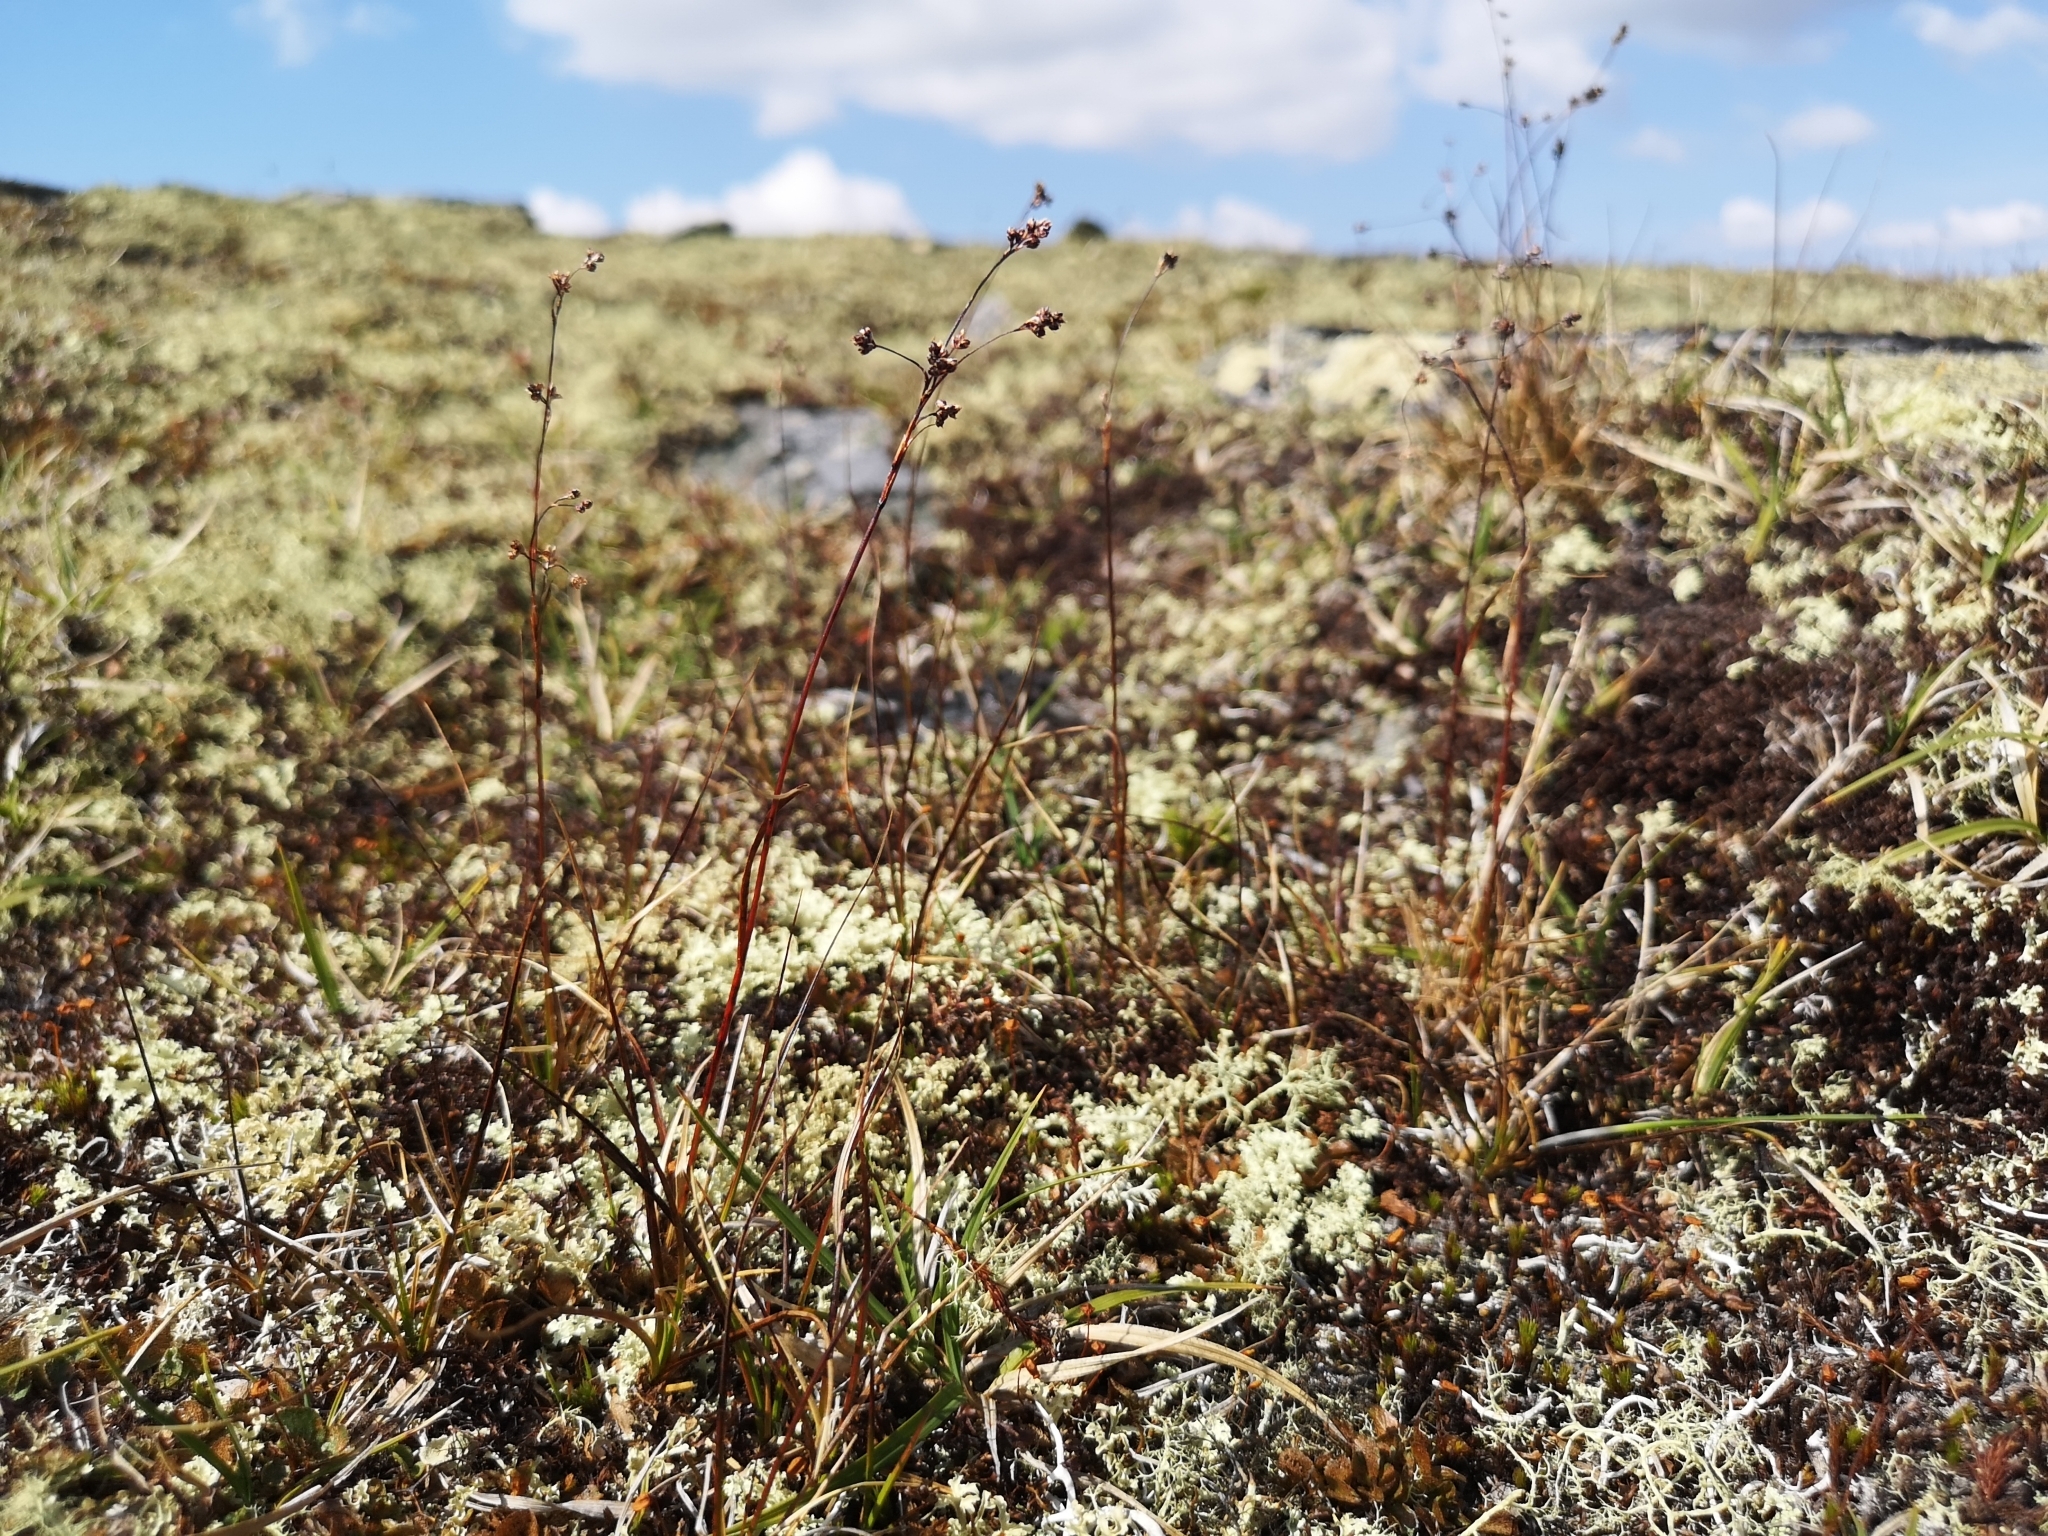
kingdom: Plantae
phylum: Tracheophyta
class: Liliopsida
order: Poales
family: Juncaceae
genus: Luzula
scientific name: Luzula arcuata
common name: Curved wood-rush
